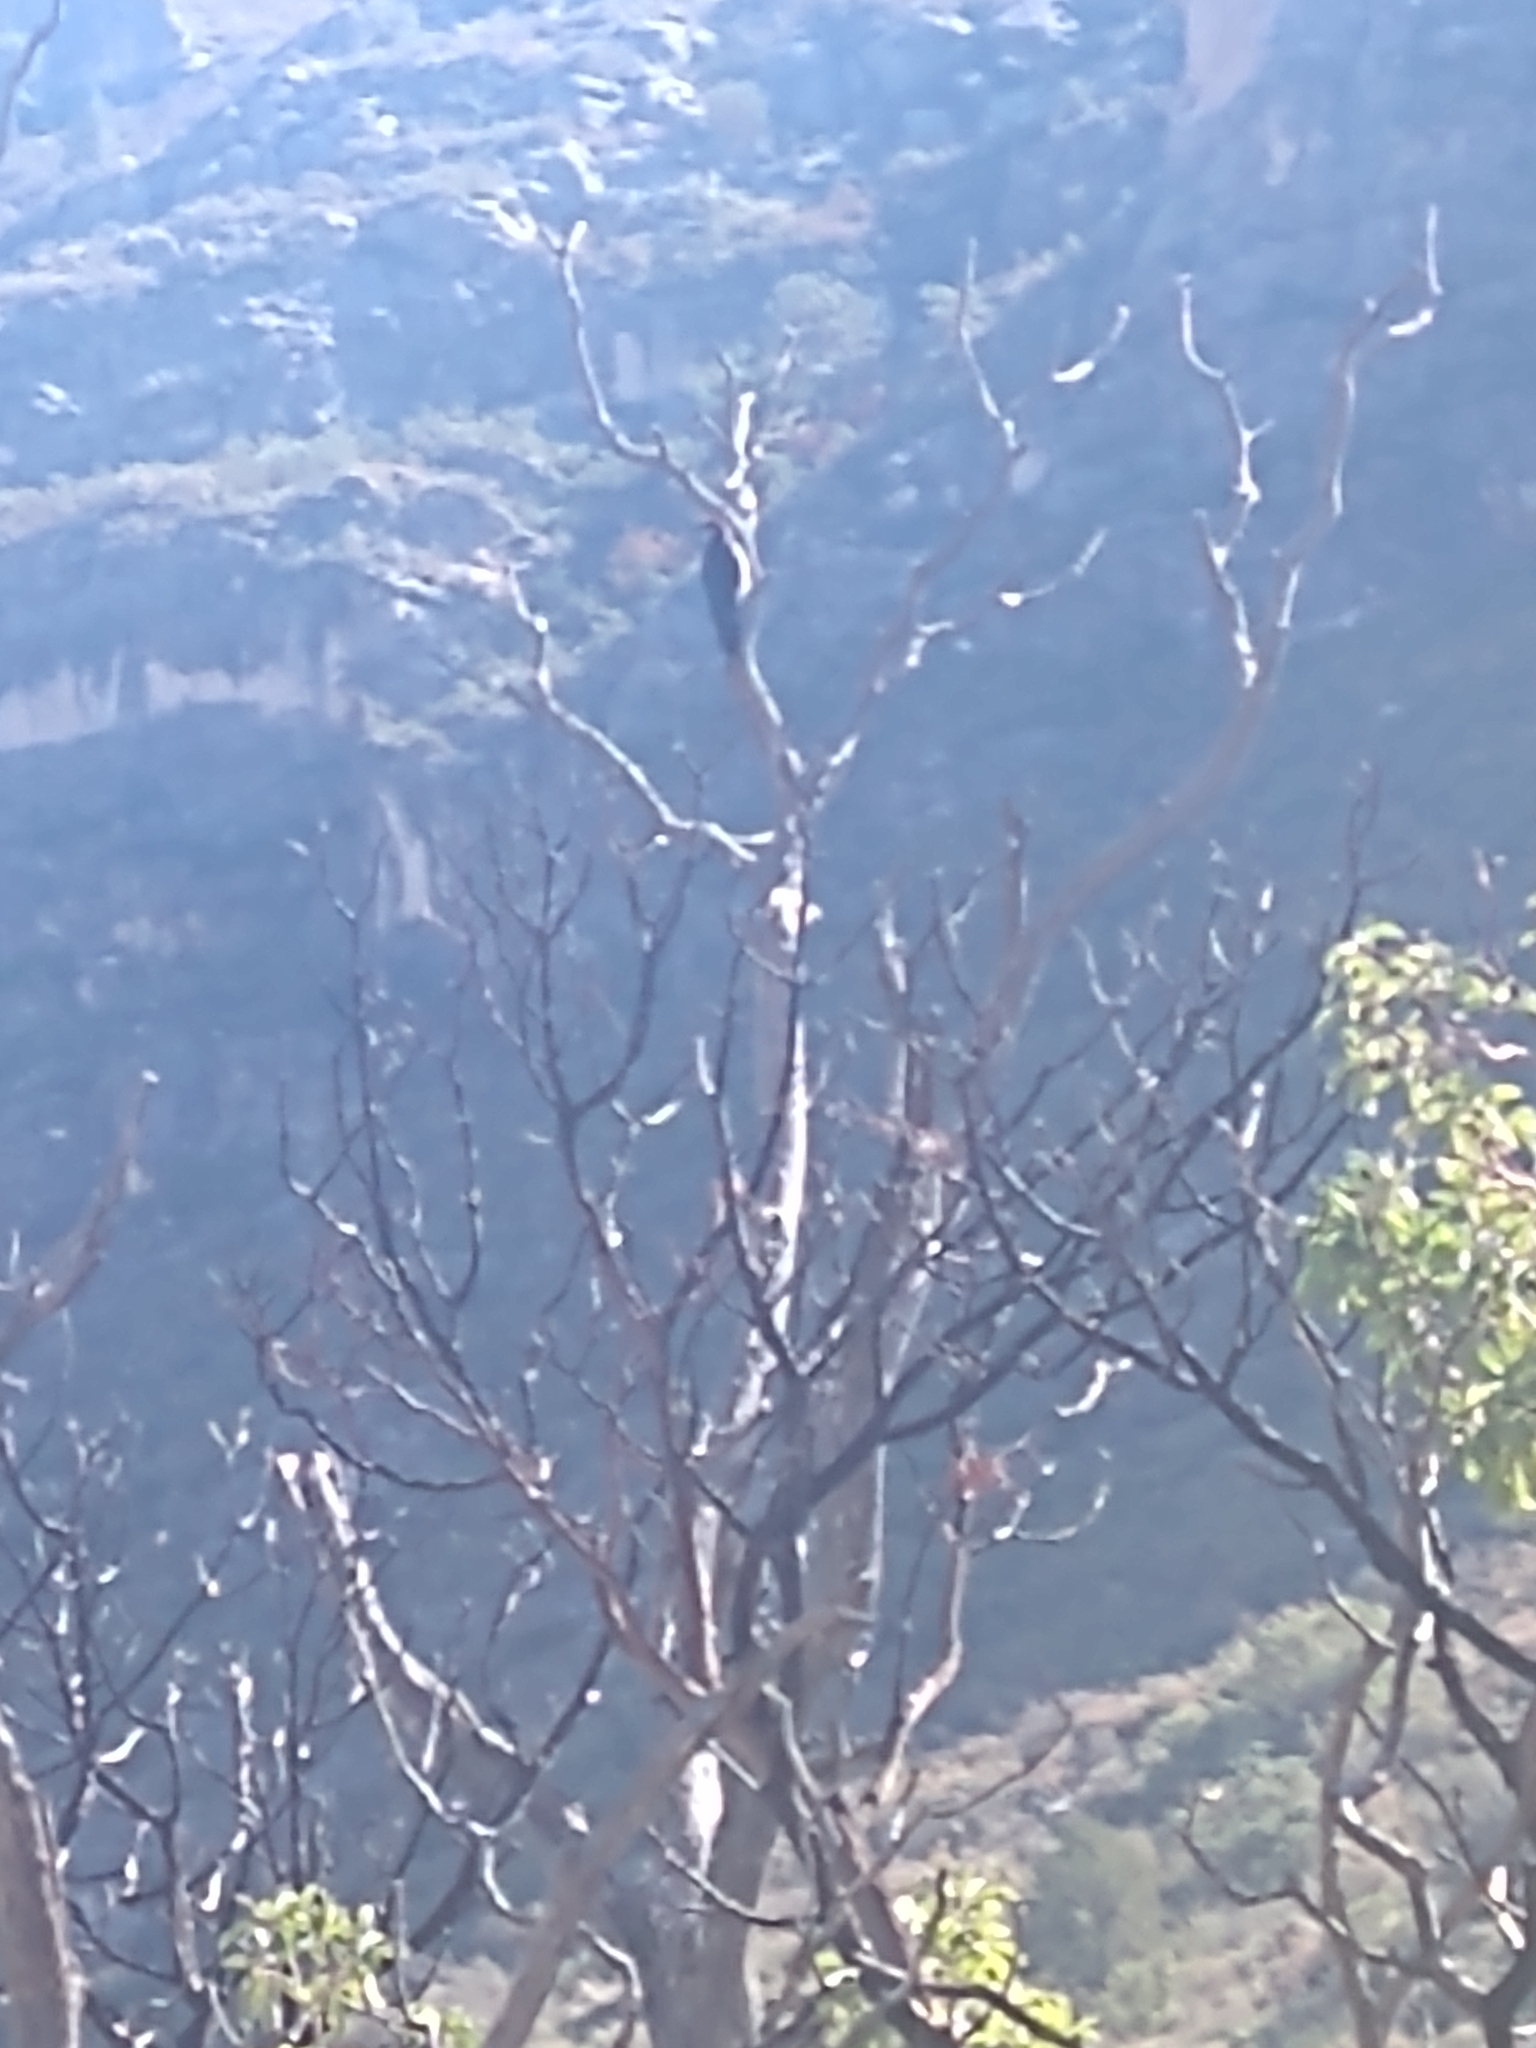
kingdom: Animalia
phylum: Chordata
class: Aves
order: Piciformes
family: Picidae
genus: Melanerpes
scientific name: Melanerpes formicivorus
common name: Acorn woodpecker
